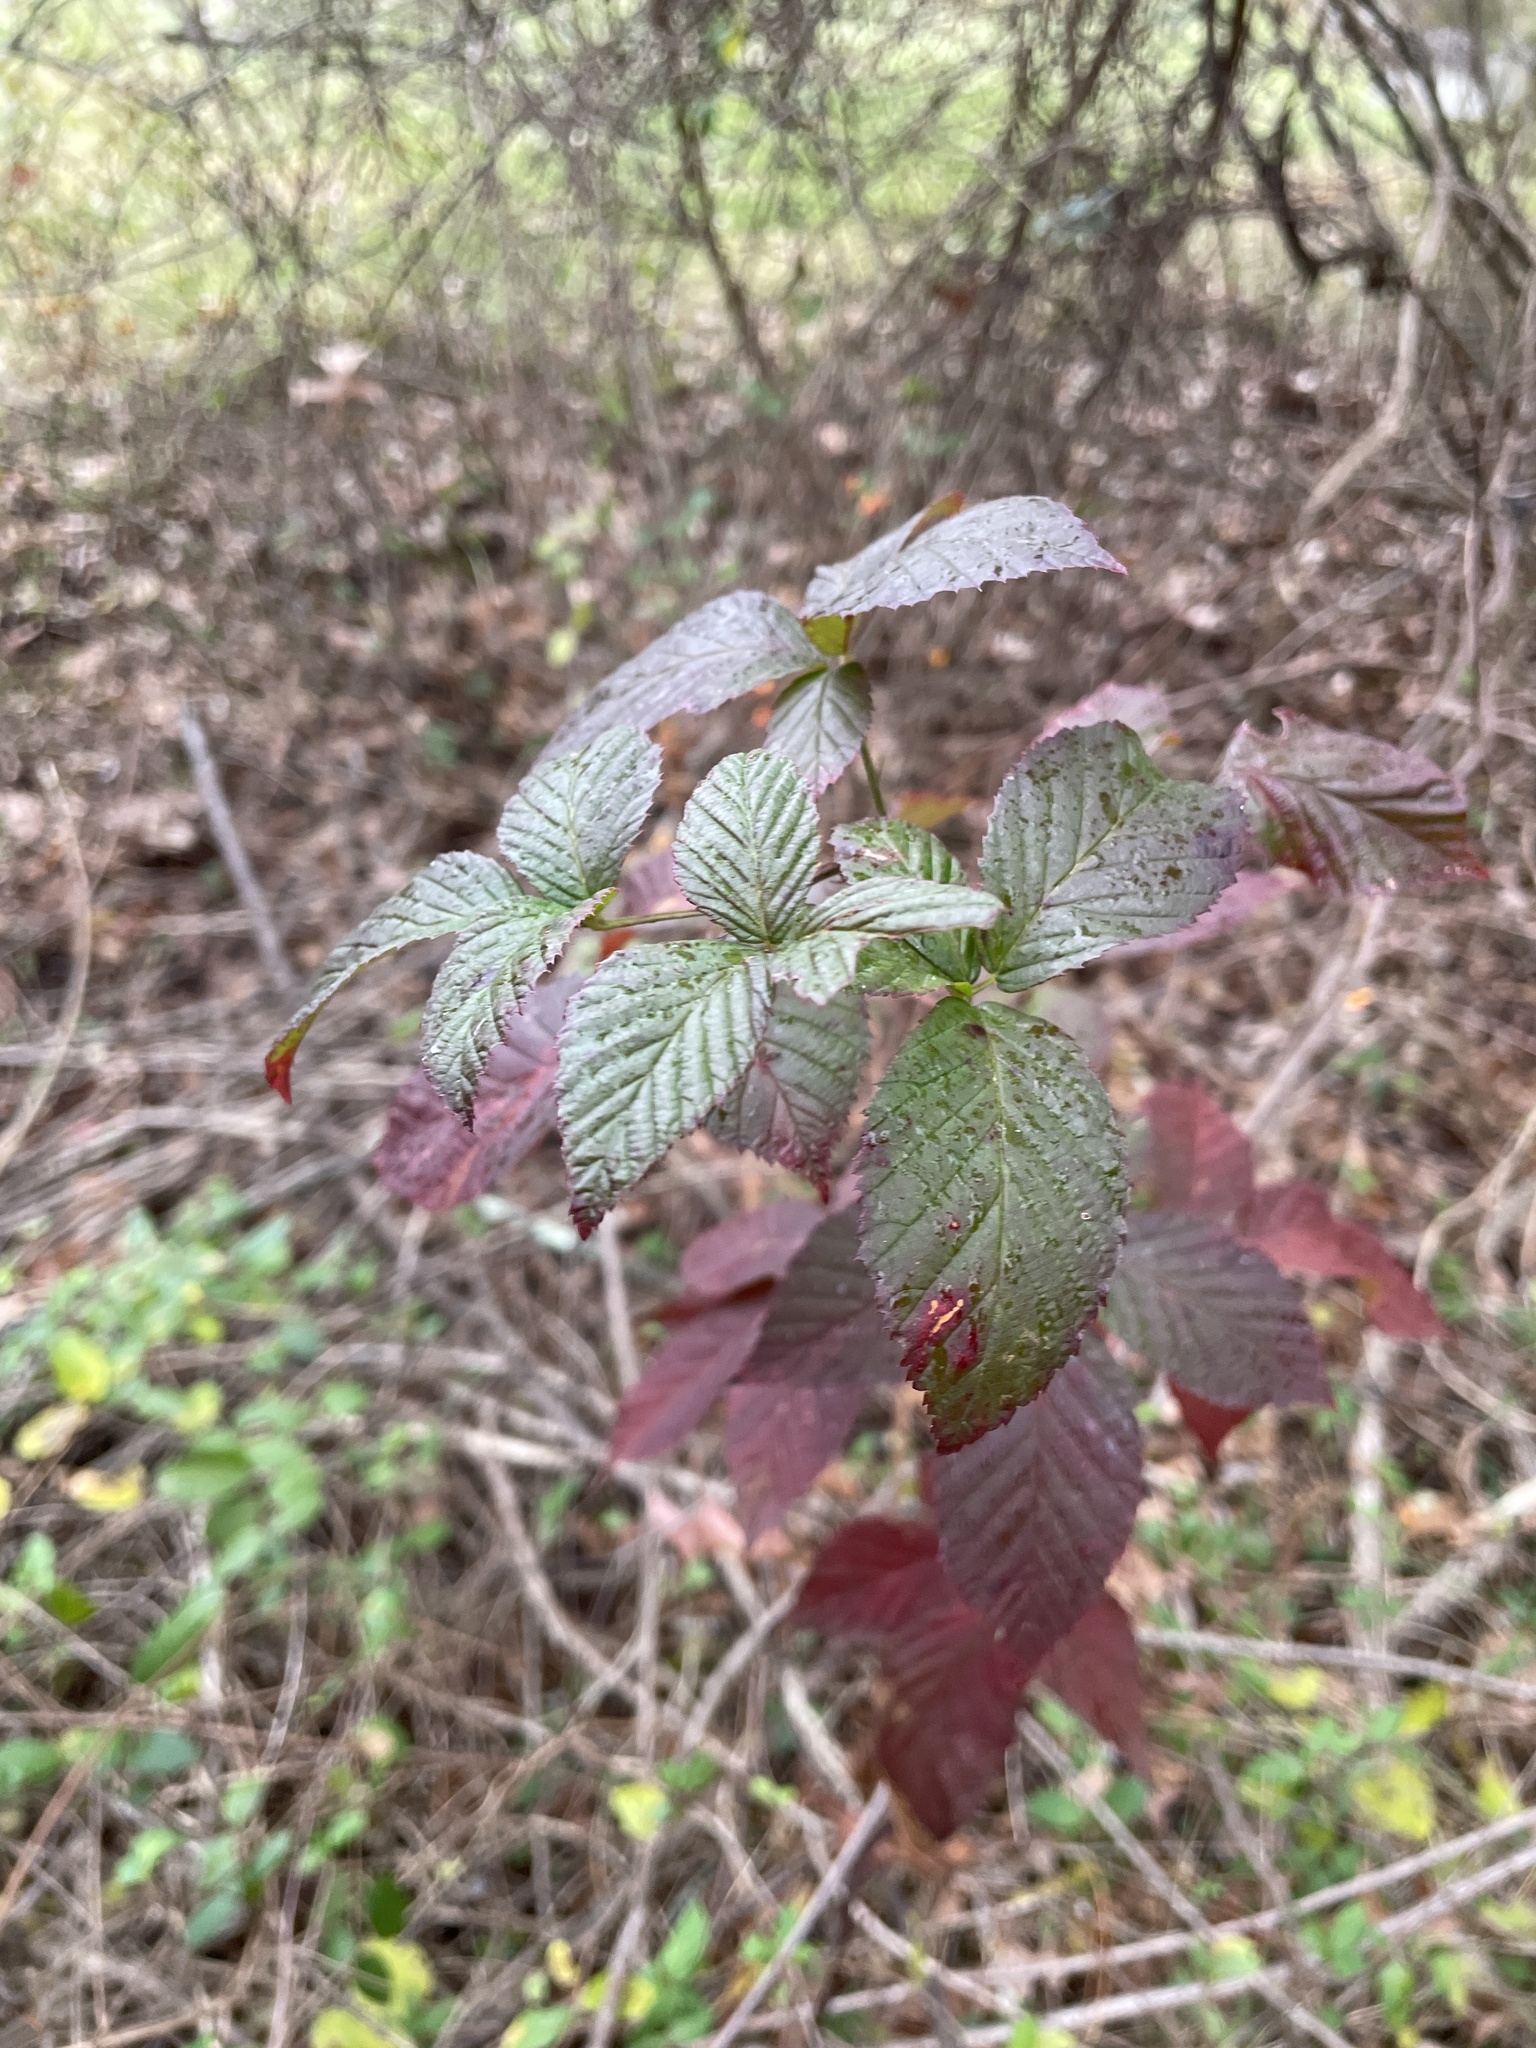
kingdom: Plantae
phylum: Tracheophyta
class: Magnoliopsida
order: Rosales
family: Rosaceae
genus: Rubus
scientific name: Rubus allegheniensis
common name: Allegheny blackberry
